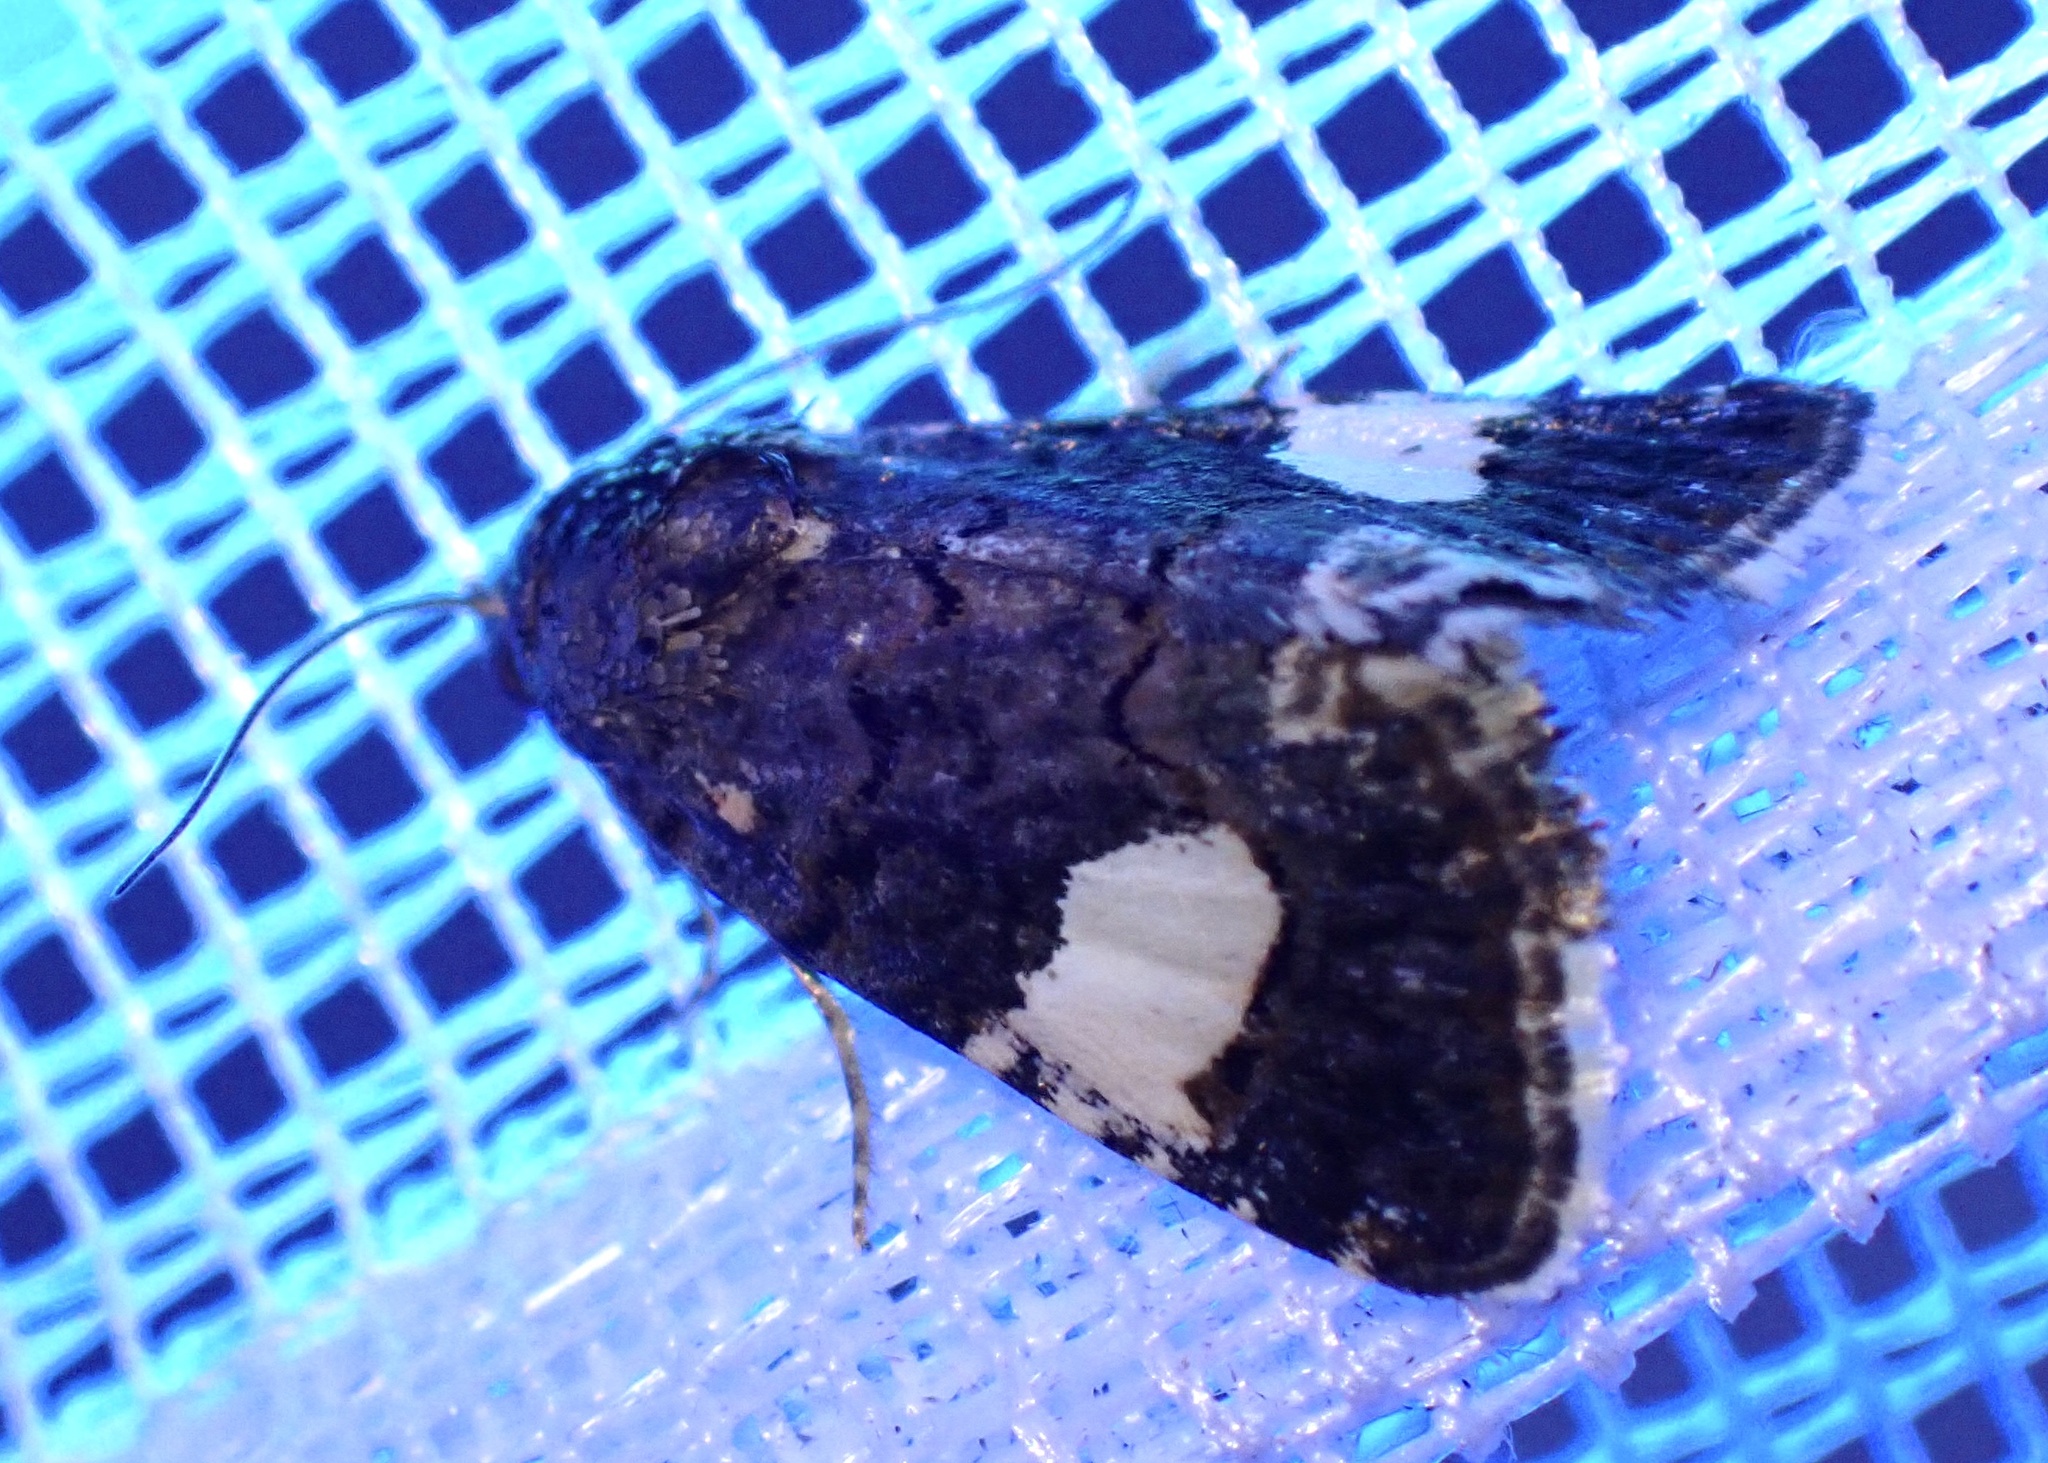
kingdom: Animalia
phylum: Arthropoda
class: Insecta
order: Lepidoptera
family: Erebidae
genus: Tyta
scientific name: Tyta luctuosa
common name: Four-spotted
